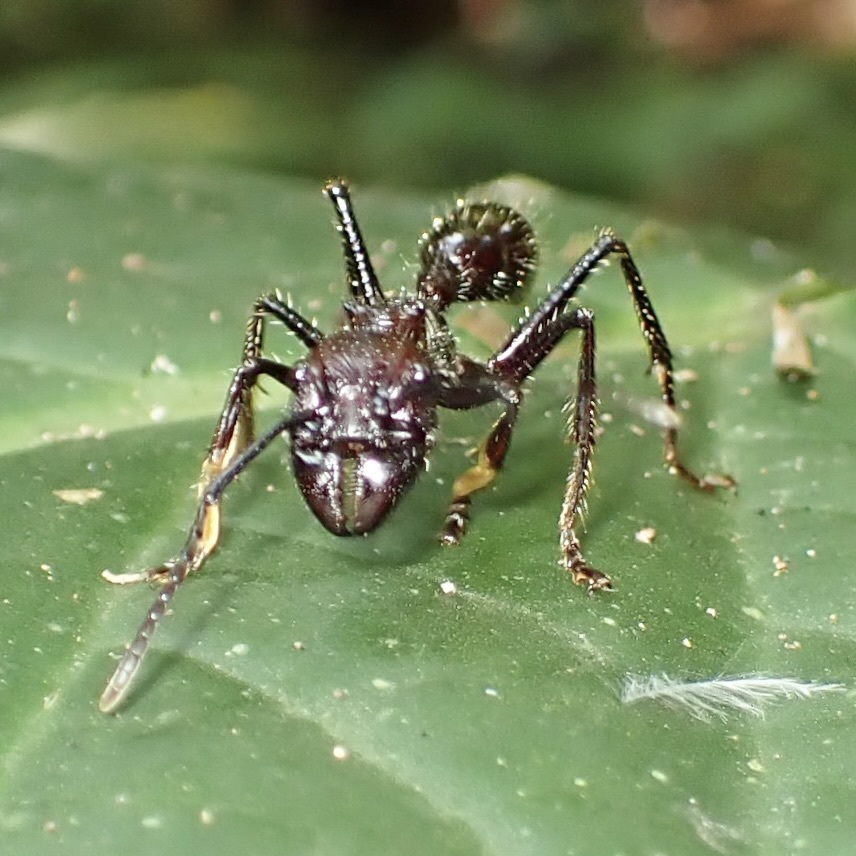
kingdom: Animalia
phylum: Arthropoda
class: Insecta
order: Hymenoptera
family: Formicidae
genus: Paraponera
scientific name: Paraponera clavata
